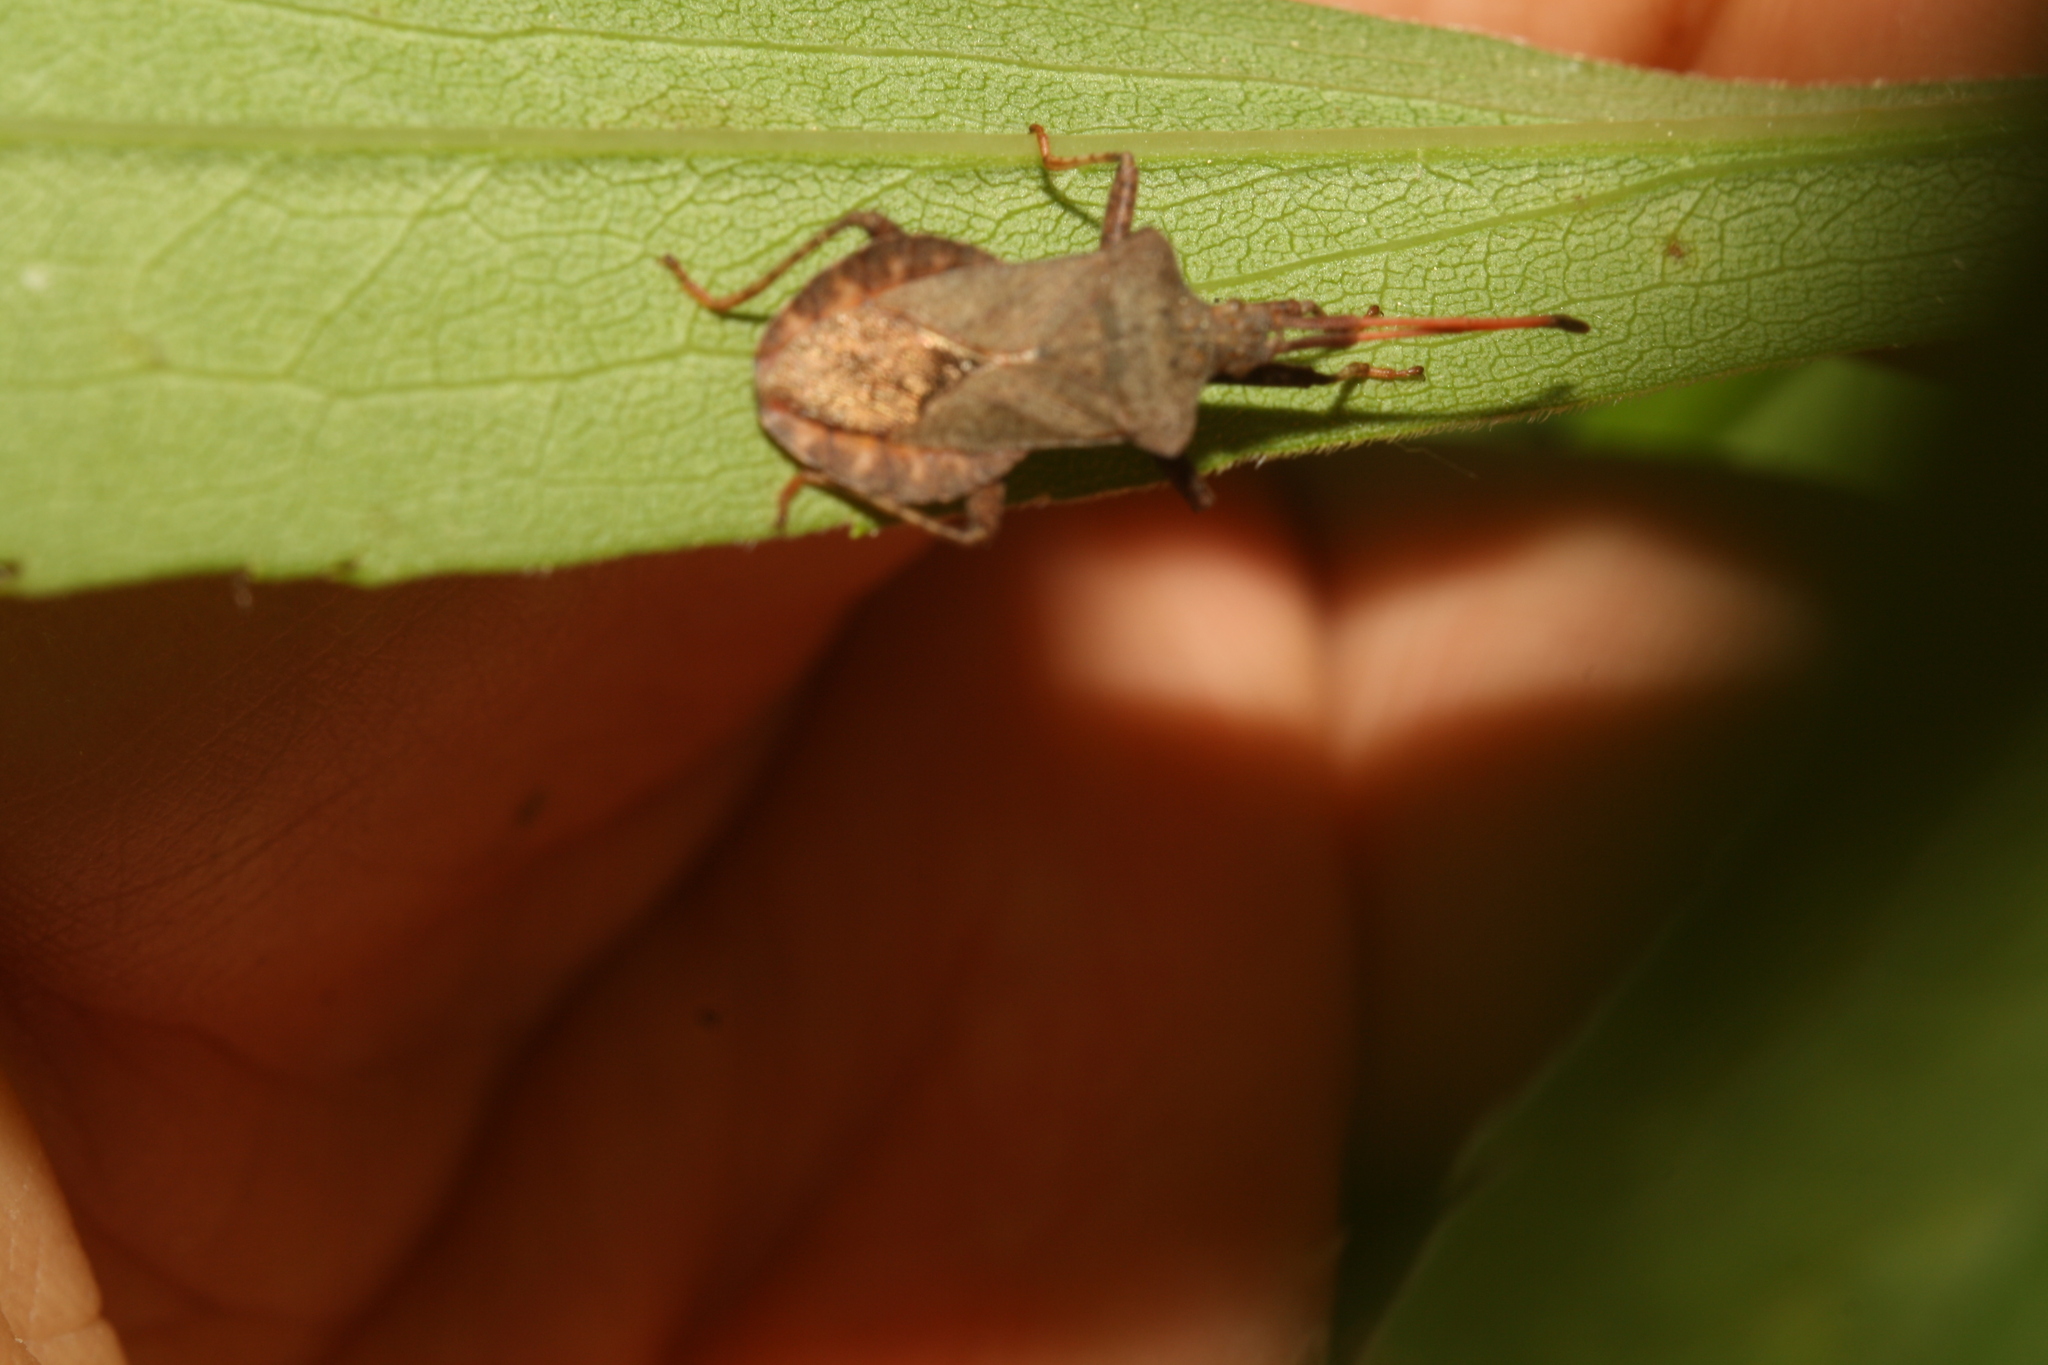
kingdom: Animalia
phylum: Arthropoda
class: Insecta
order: Hemiptera
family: Coreidae
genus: Coreus
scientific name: Coreus marginatus
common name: Dock bug
